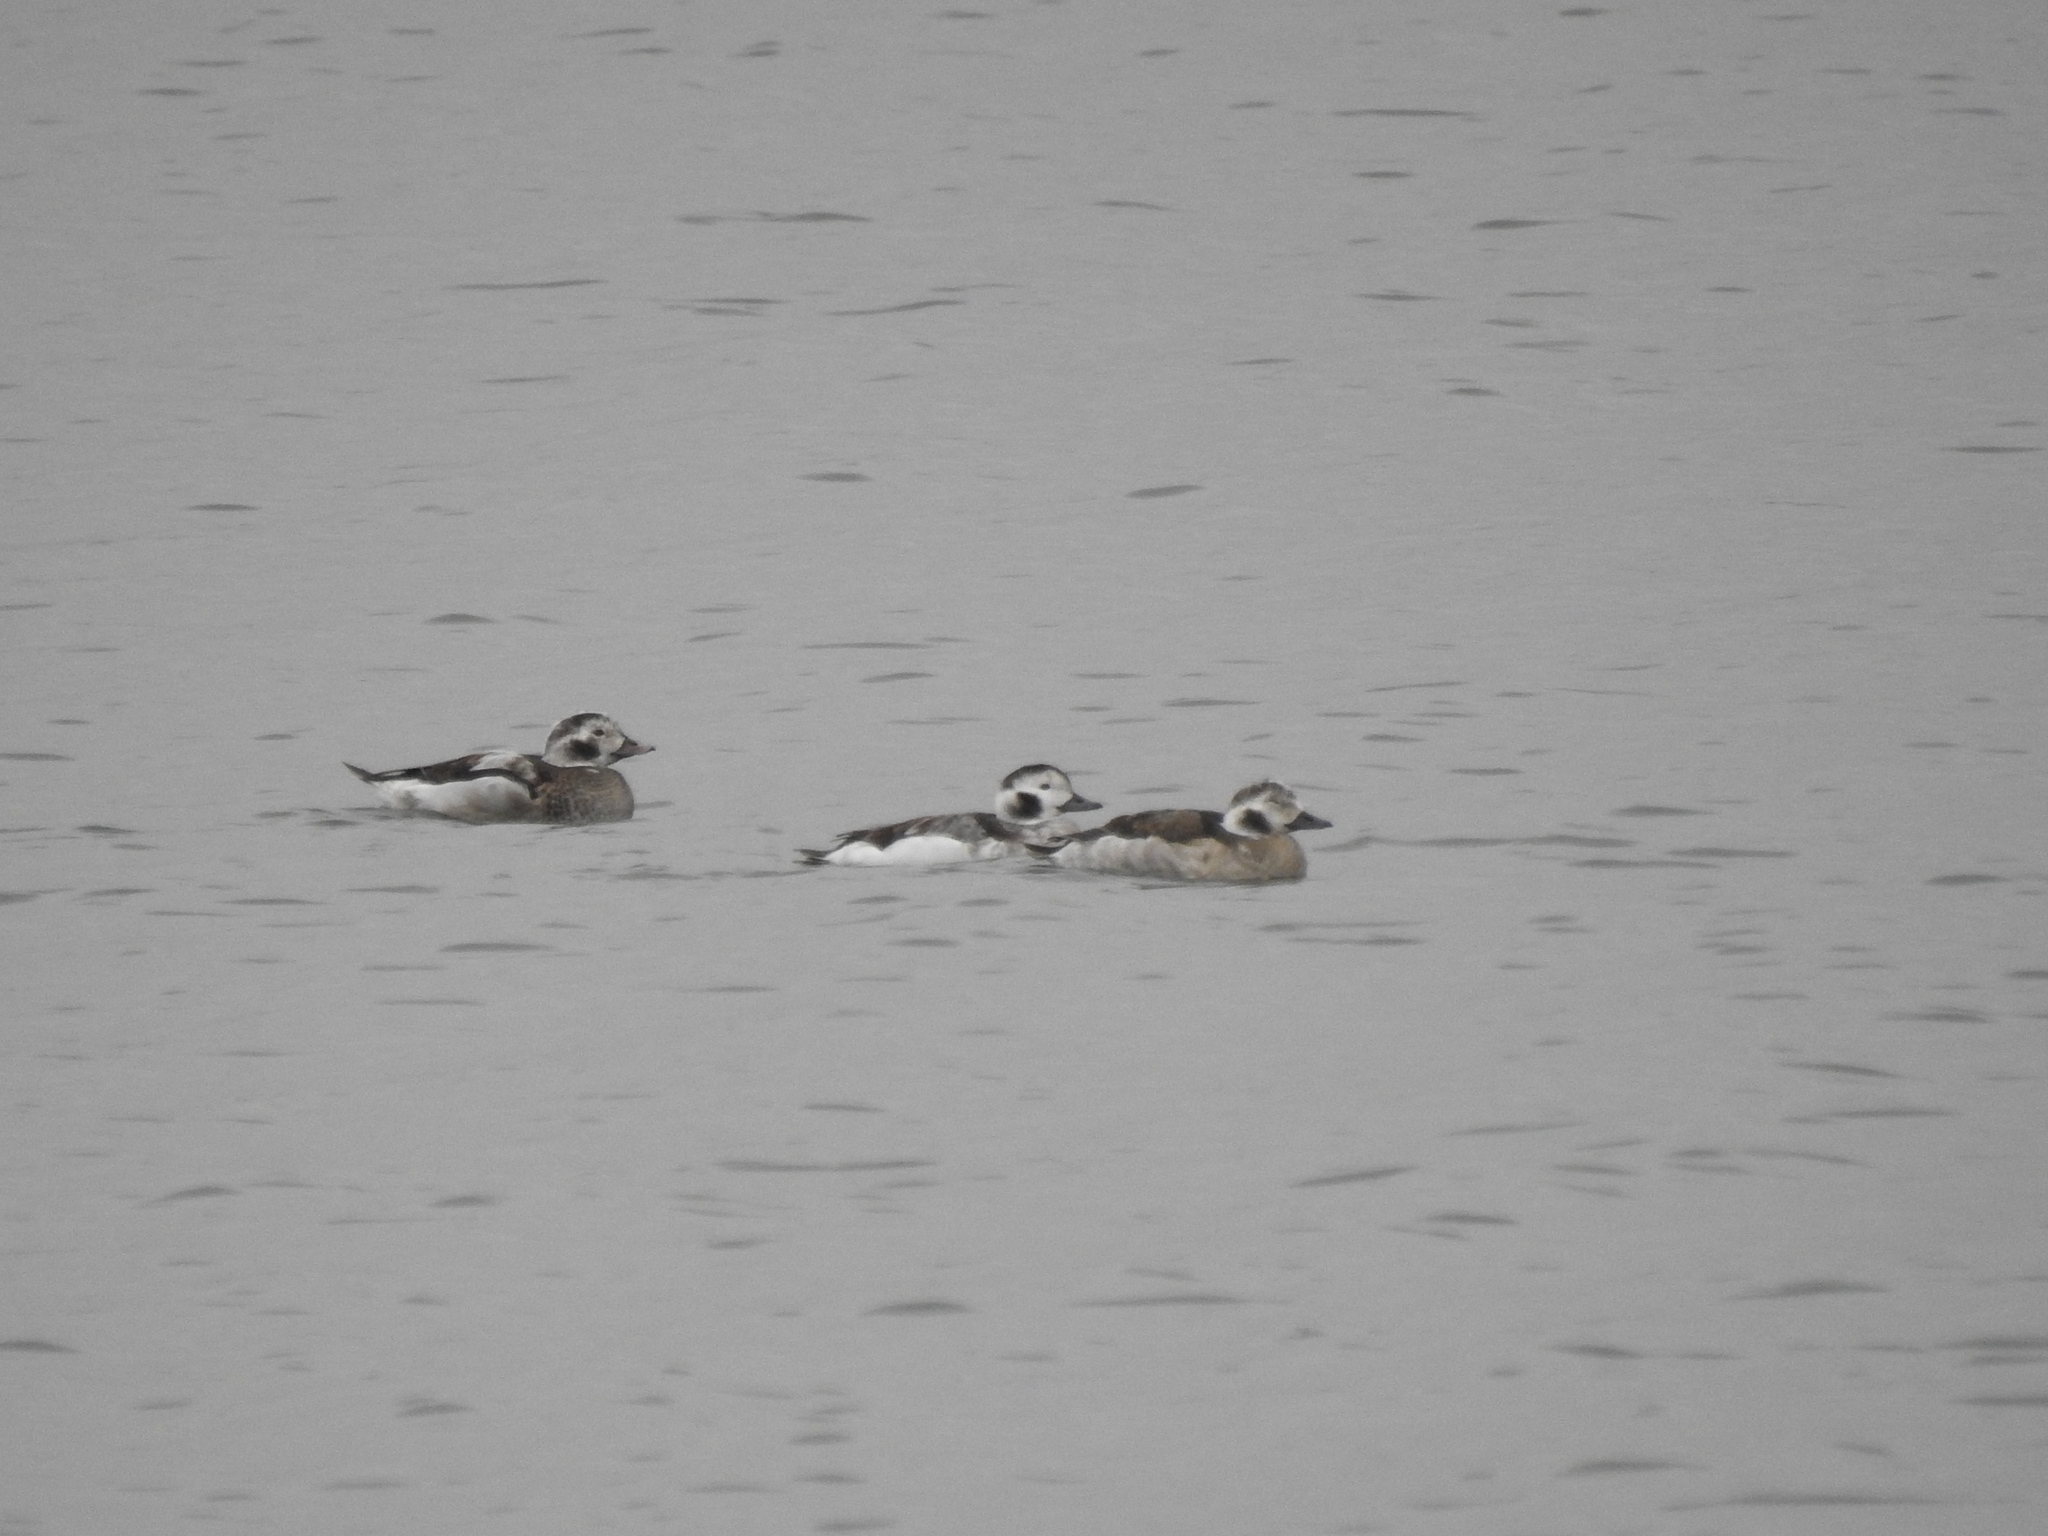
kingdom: Animalia
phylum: Chordata
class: Aves
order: Anseriformes
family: Anatidae
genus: Clangula
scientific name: Clangula hyemalis
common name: Long-tailed duck
